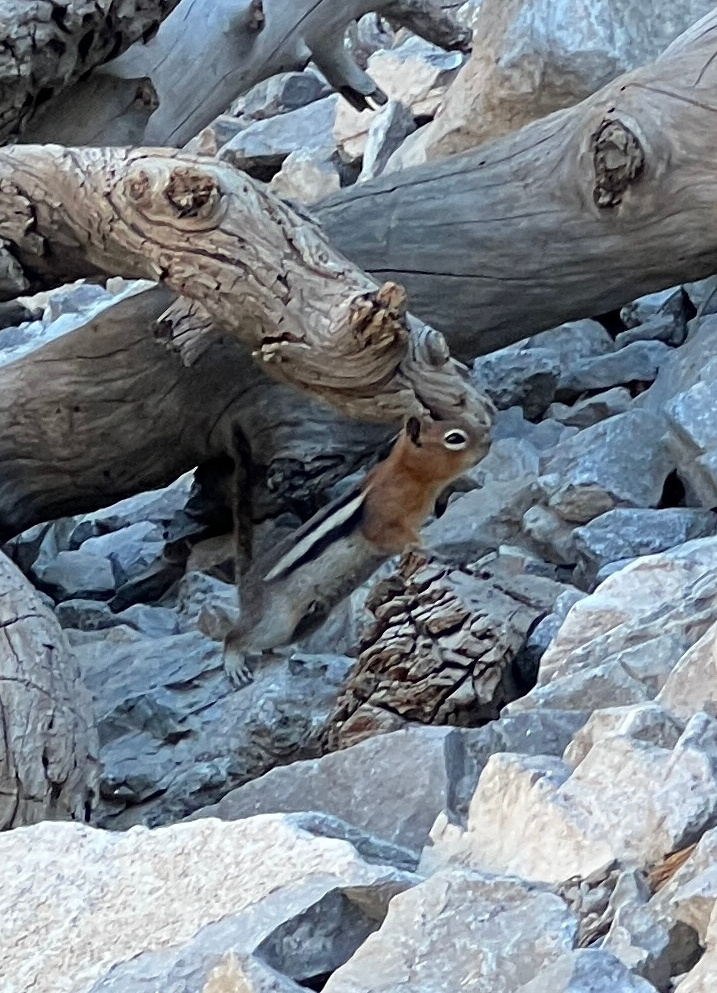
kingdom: Animalia
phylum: Chordata
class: Mammalia
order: Rodentia
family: Sciuridae
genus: Callospermophilus
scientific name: Callospermophilus lateralis
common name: Golden-mantled ground squirrel
